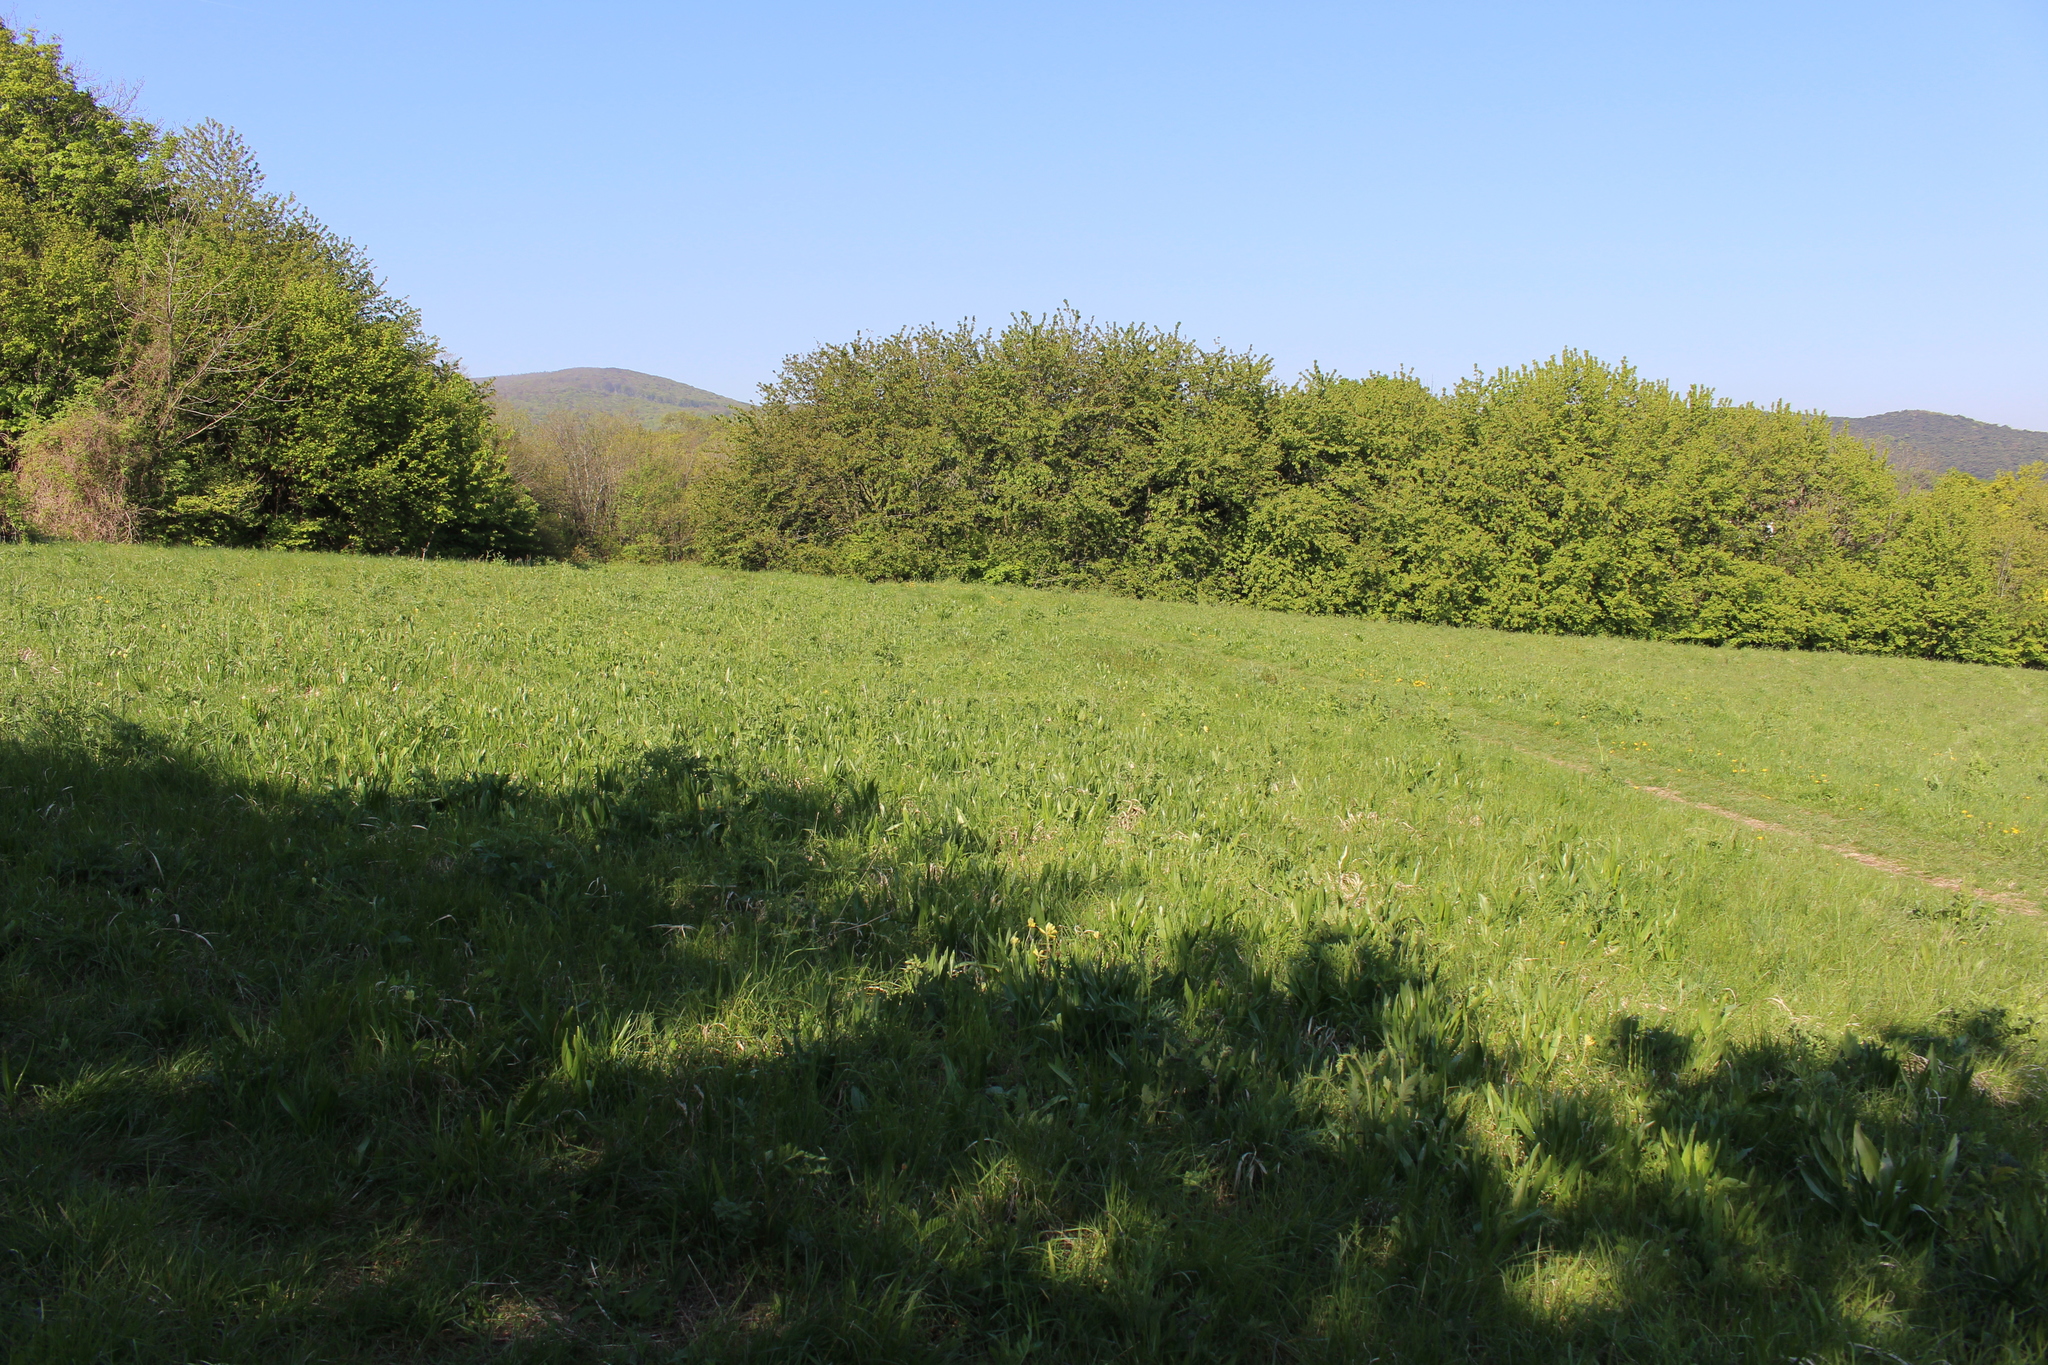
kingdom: Plantae
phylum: Tracheophyta
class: Liliopsida
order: Liliales
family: Colchicaceae
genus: Colchicum
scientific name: Colchicum autumnale
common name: Autumn crocus
